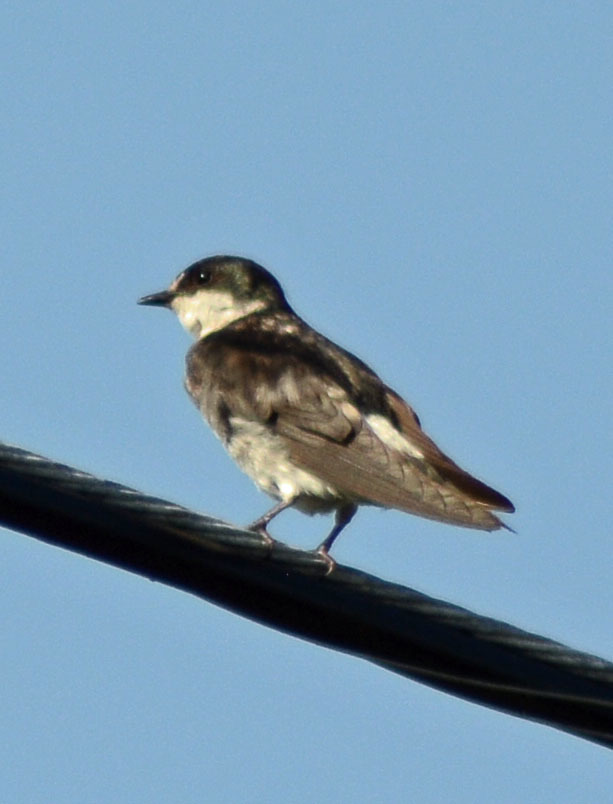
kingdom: Animalia
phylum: Chordata
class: Aves
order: Passeriformes
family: Hirundinidae
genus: Tachycineta
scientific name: Tachycineta albilinea
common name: Mangrove swallow
